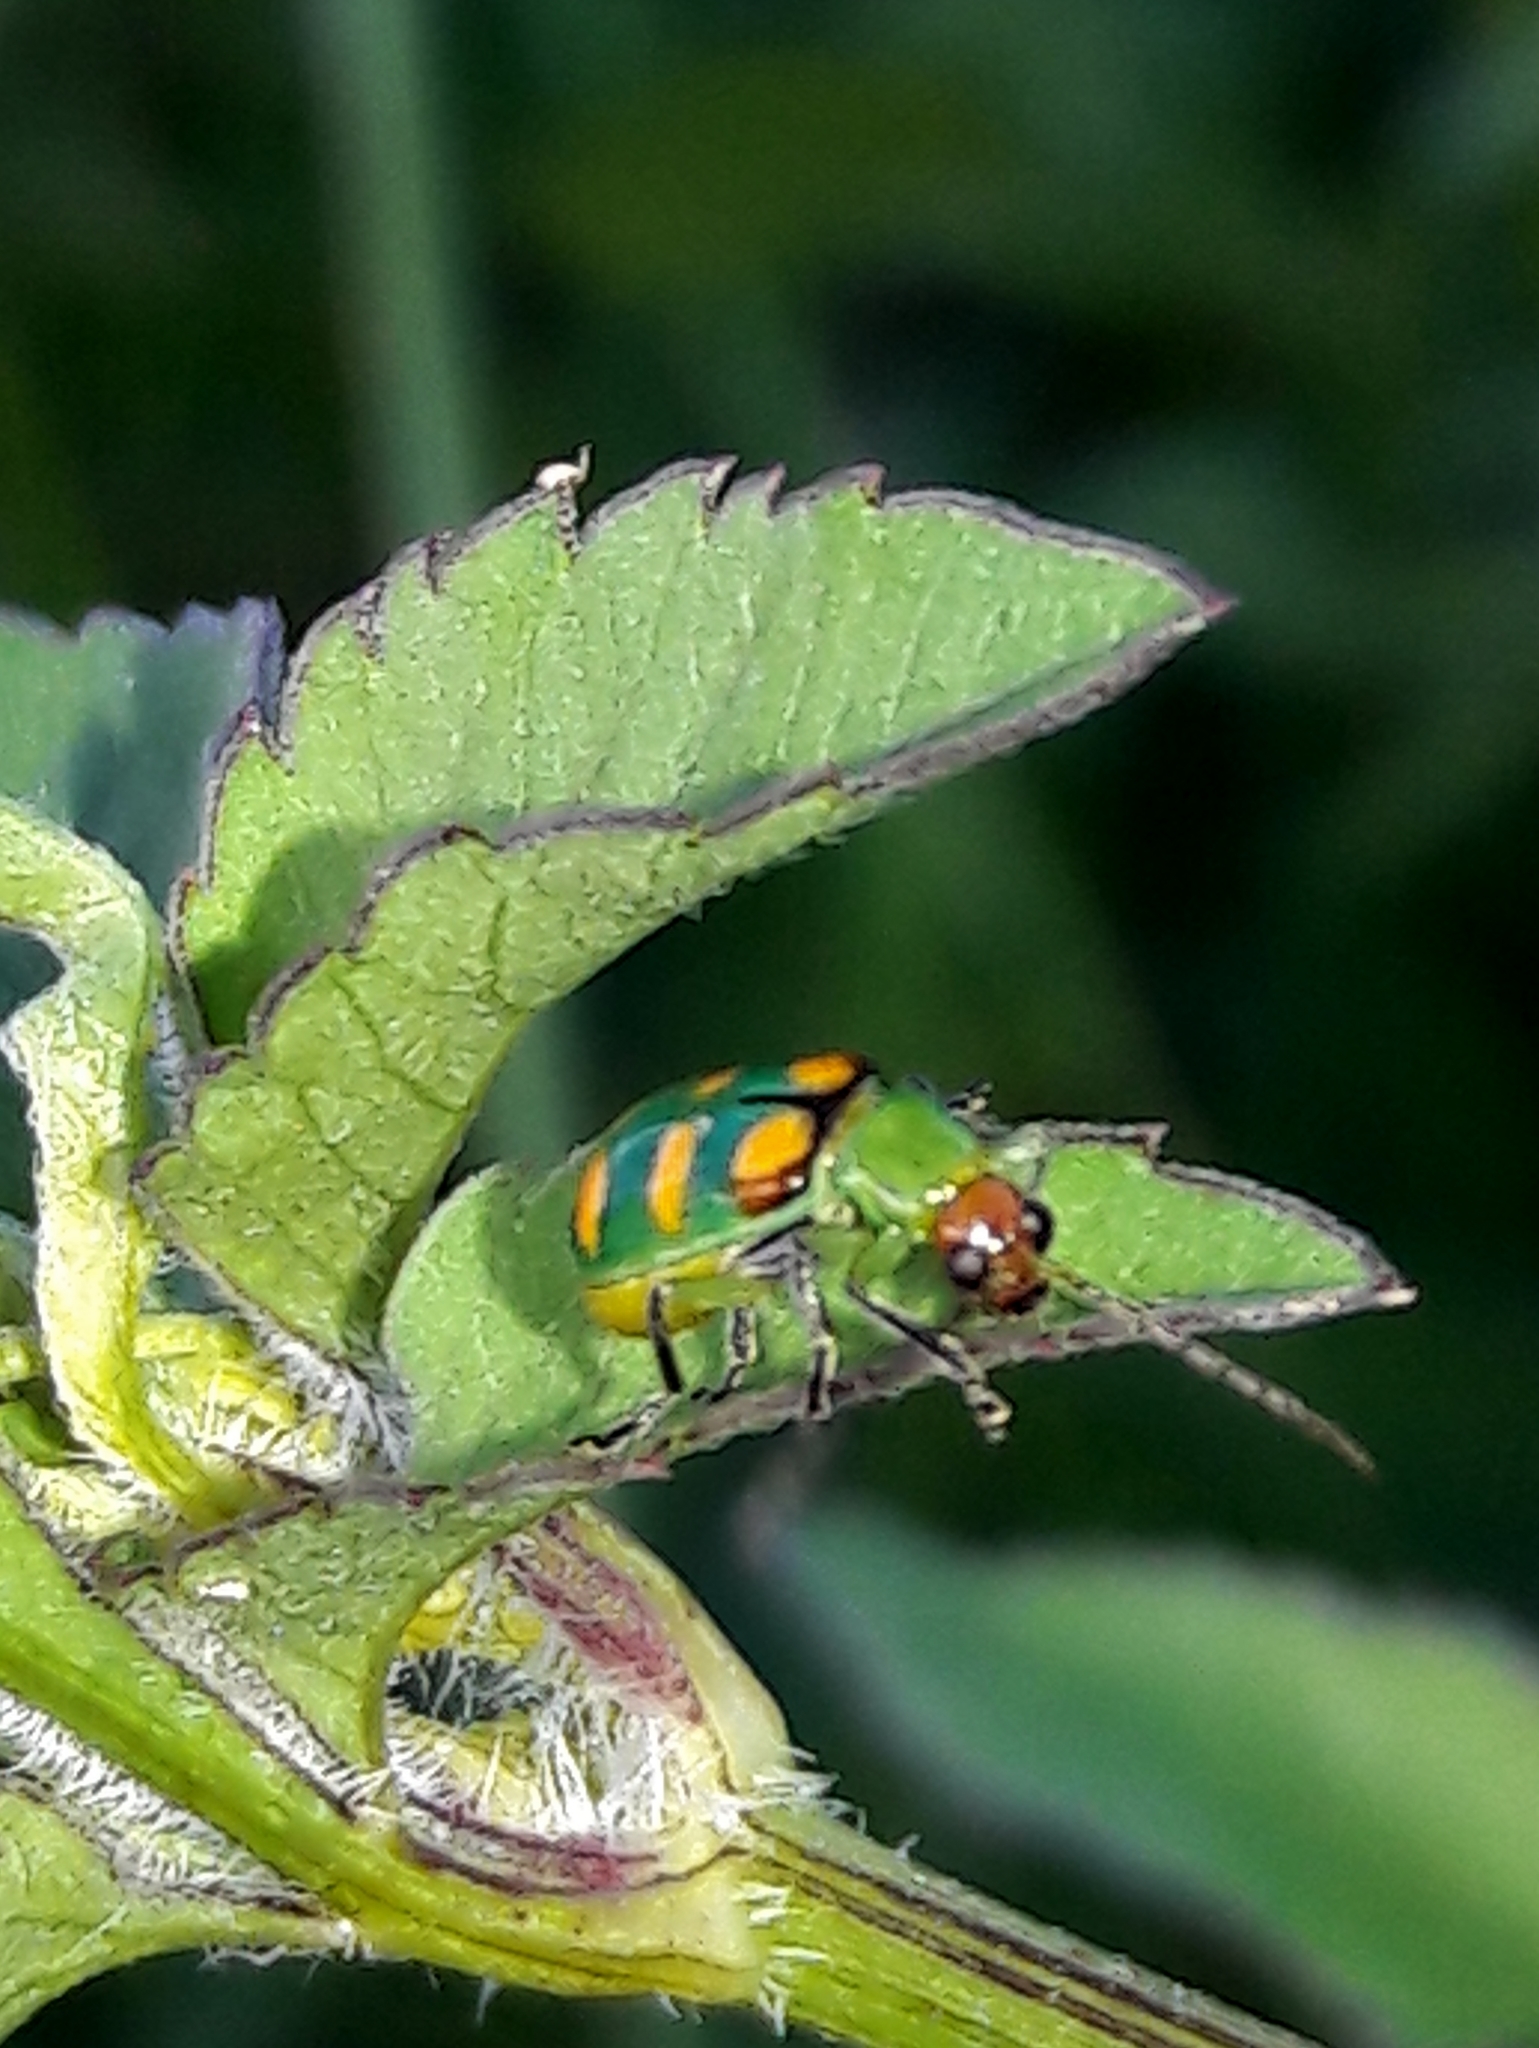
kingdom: Animalia
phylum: Arthropoda
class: Insecta
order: Coleoptera
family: Chrysomelidae
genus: Diabrotica
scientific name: Diabrotica speciosa
